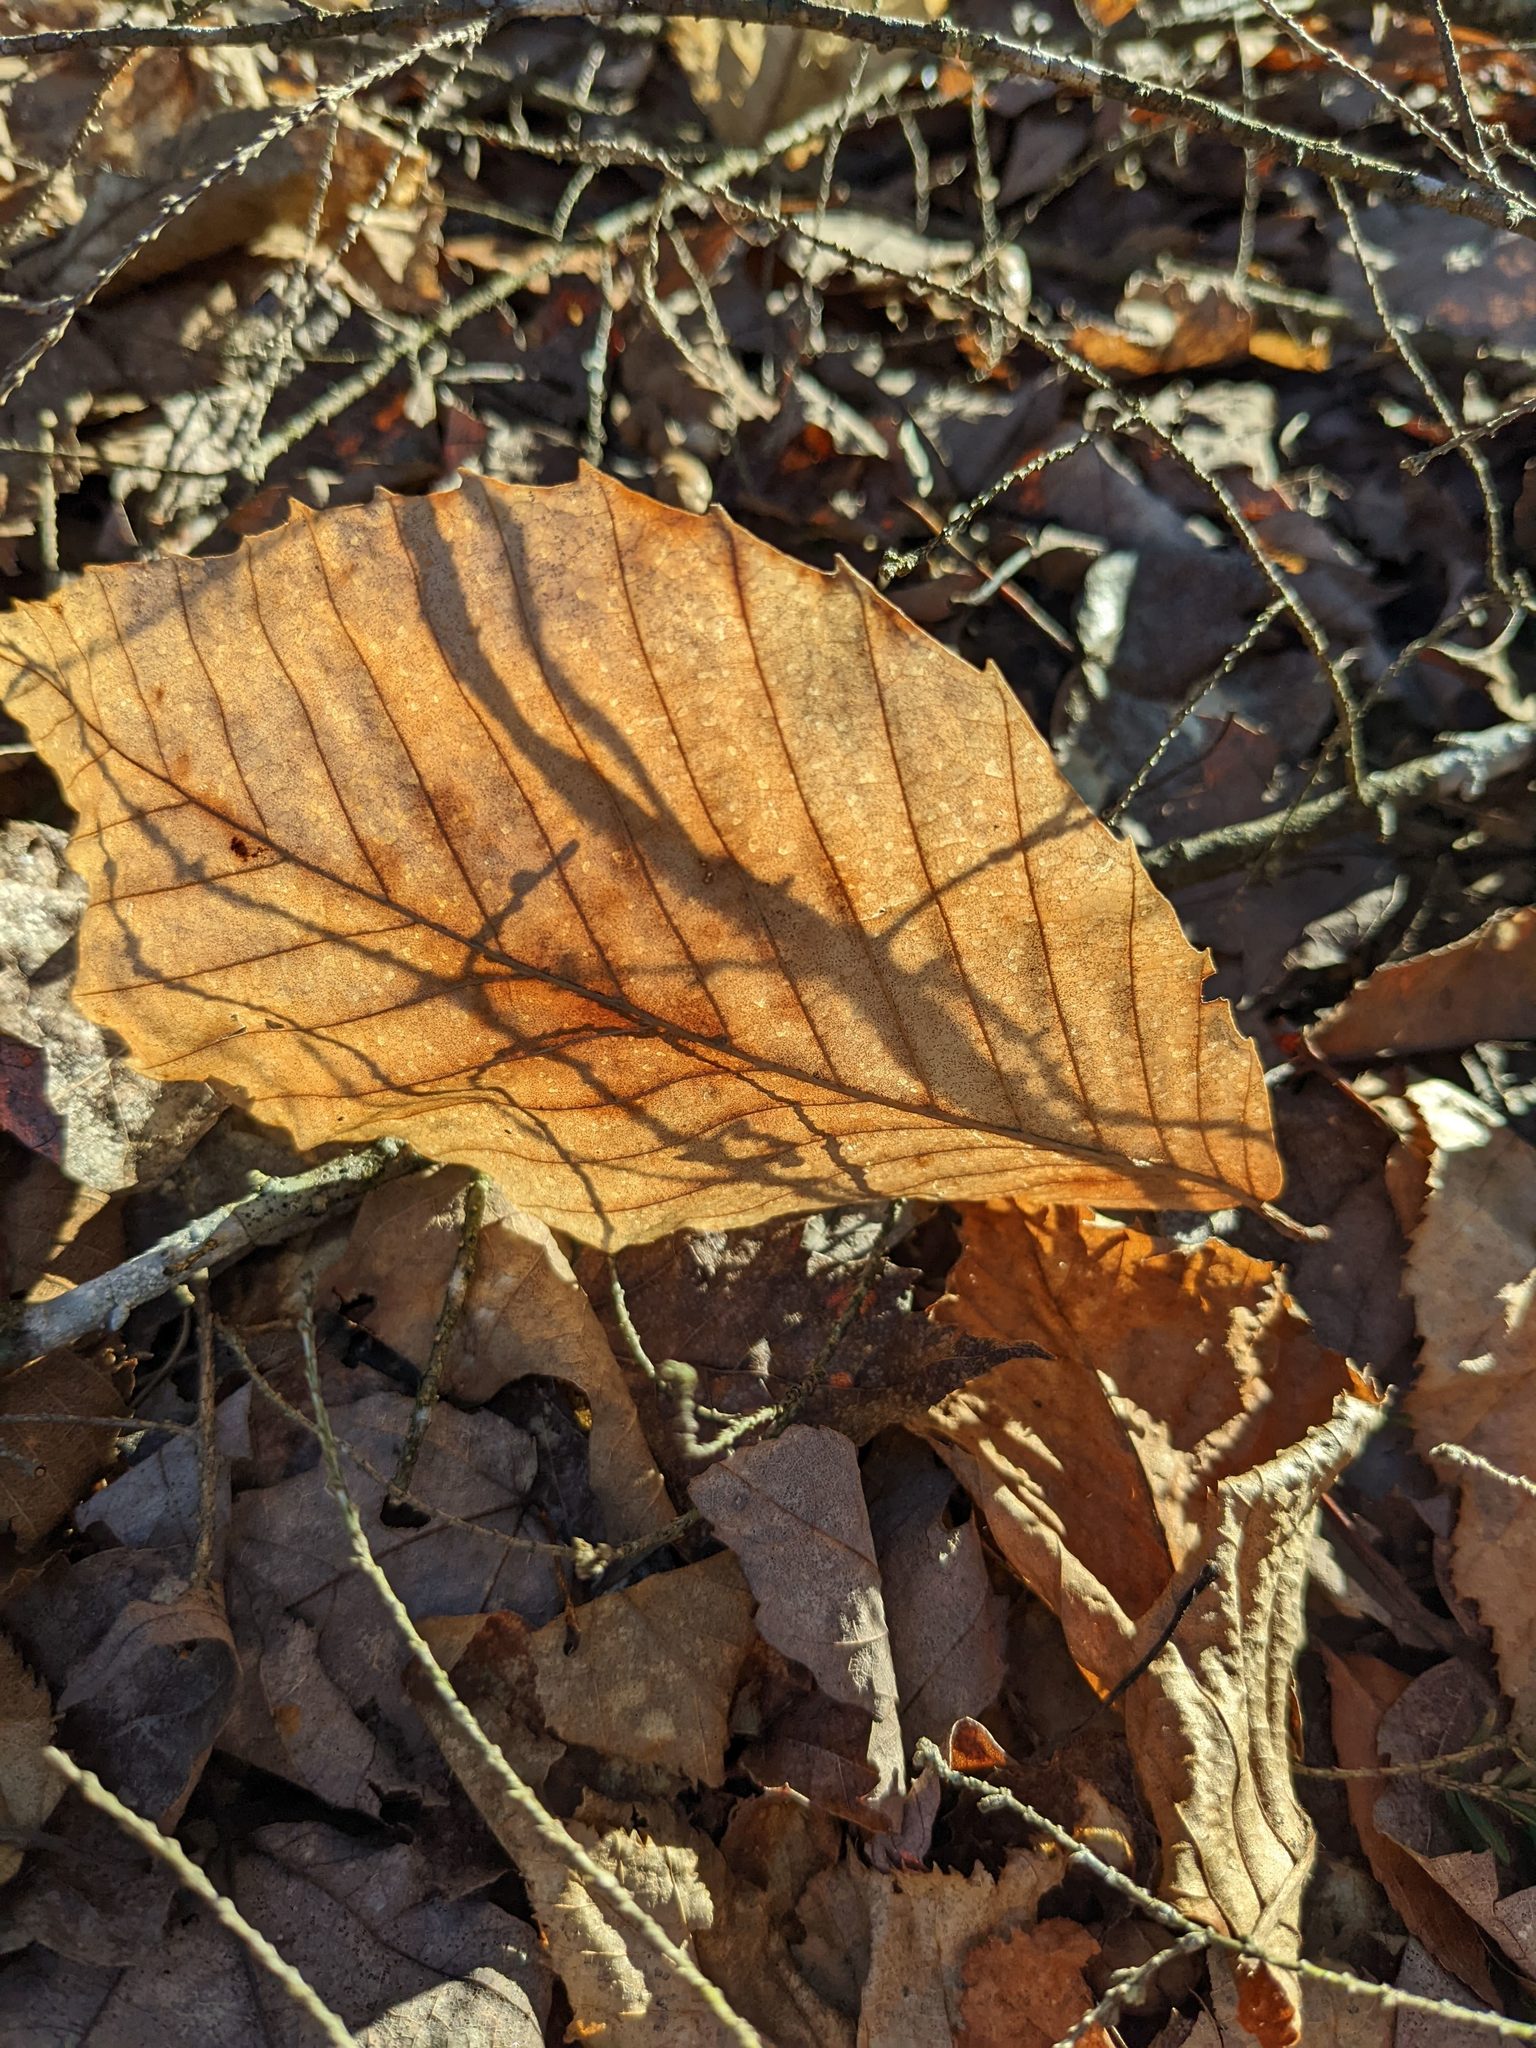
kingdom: Plantae
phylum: Tracheophyta
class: Magnoliopsida
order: Fagales
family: Fagaceae
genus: Fagus
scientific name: Fagus grandifolia
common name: American beech
